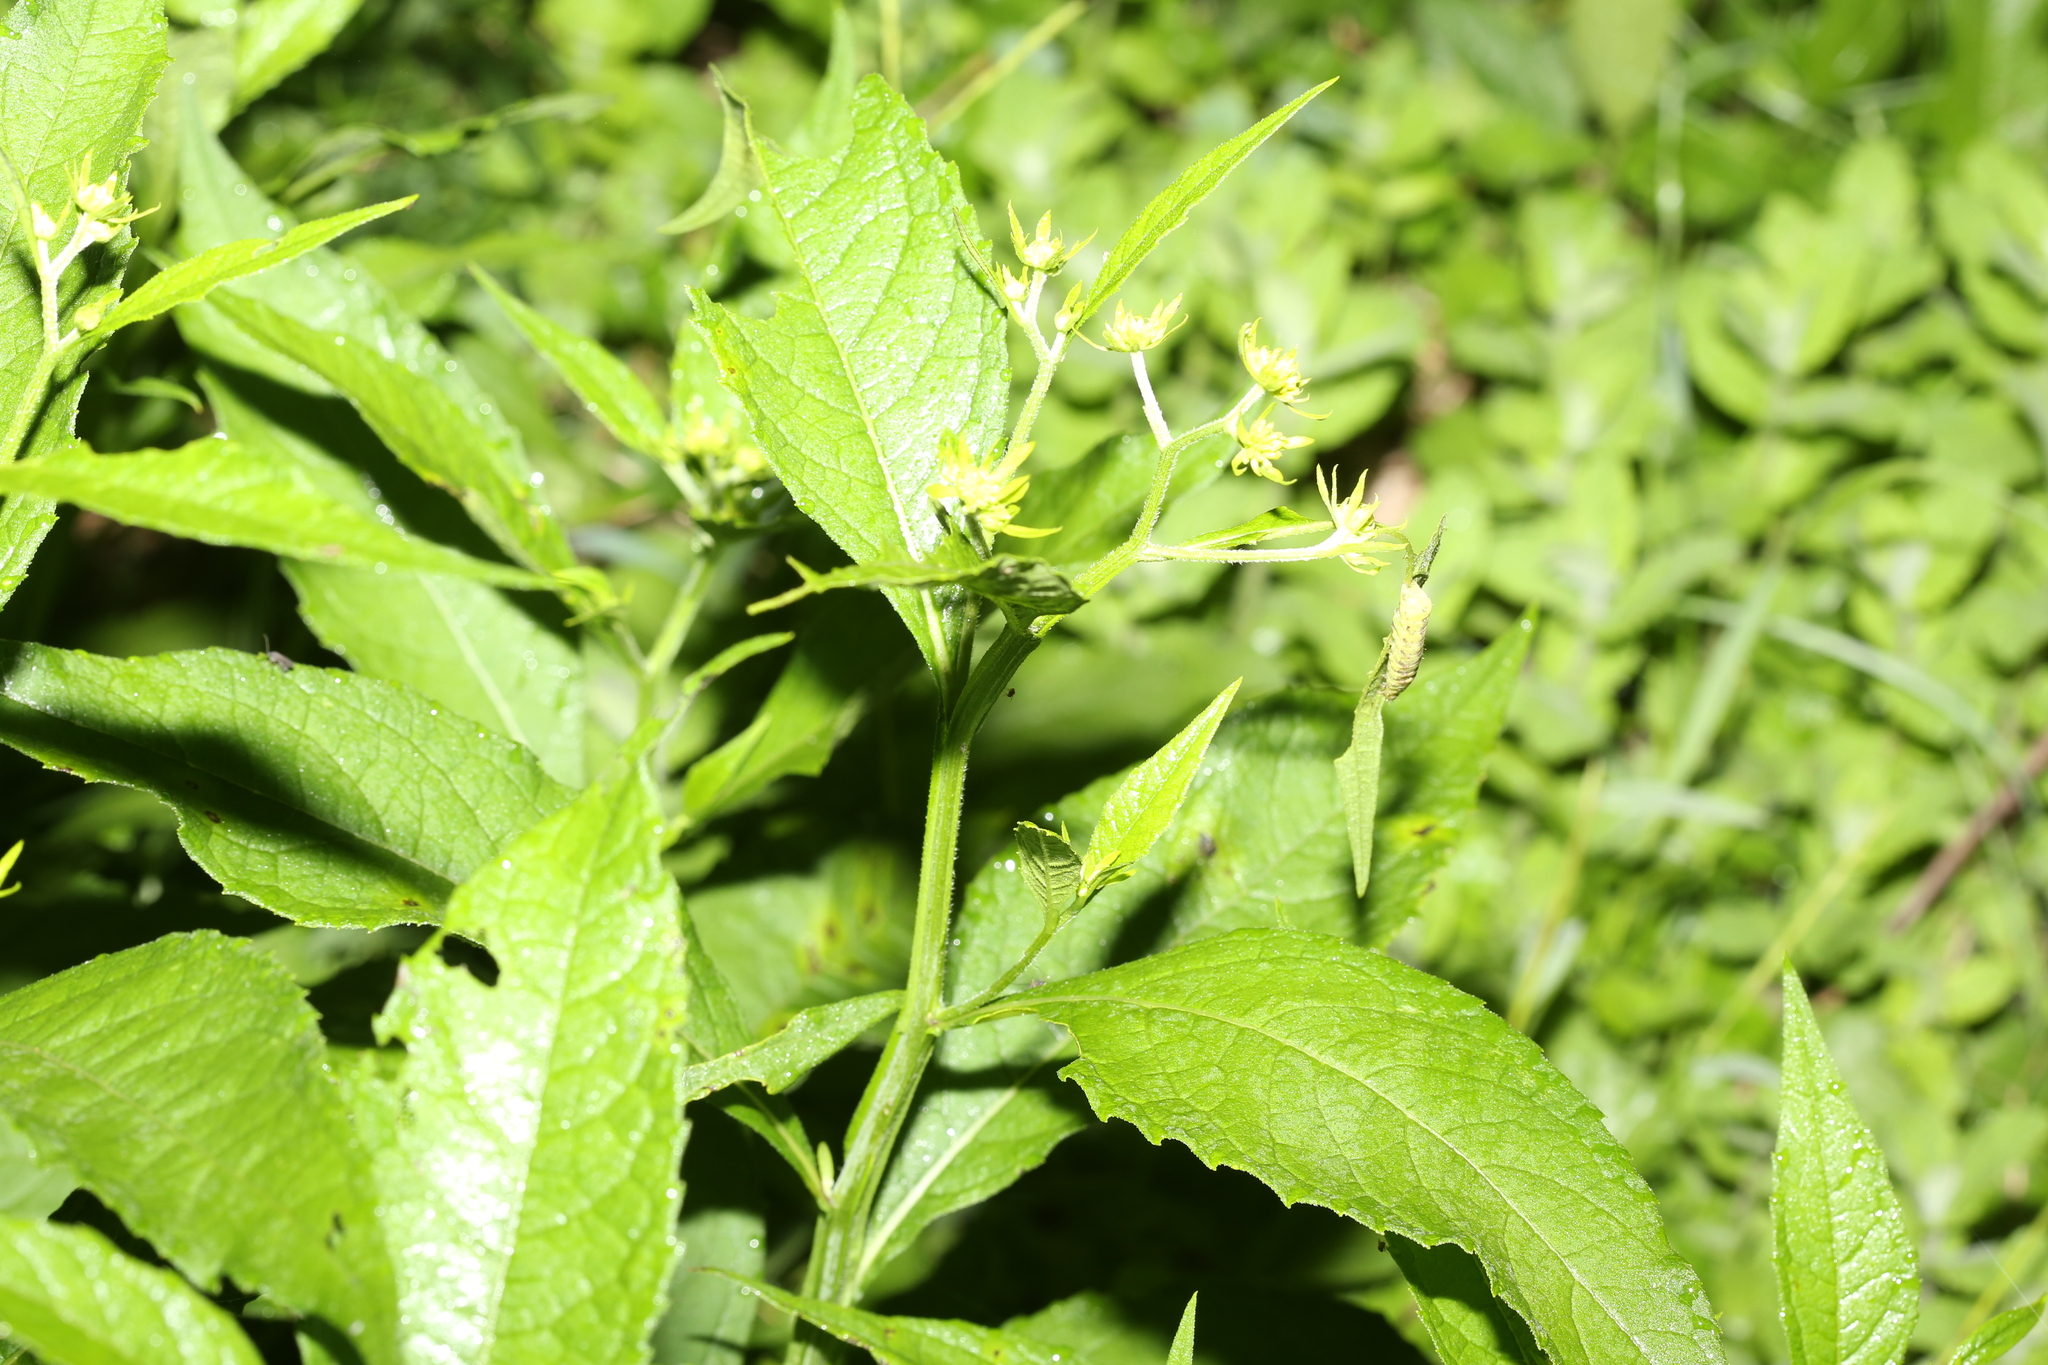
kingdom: Plantae
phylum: Tracheophyta
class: Magnoliopsida
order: Asterales
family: Asteraceae
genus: Verbesina
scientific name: Verbesina alternifolia
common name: Wingstem
